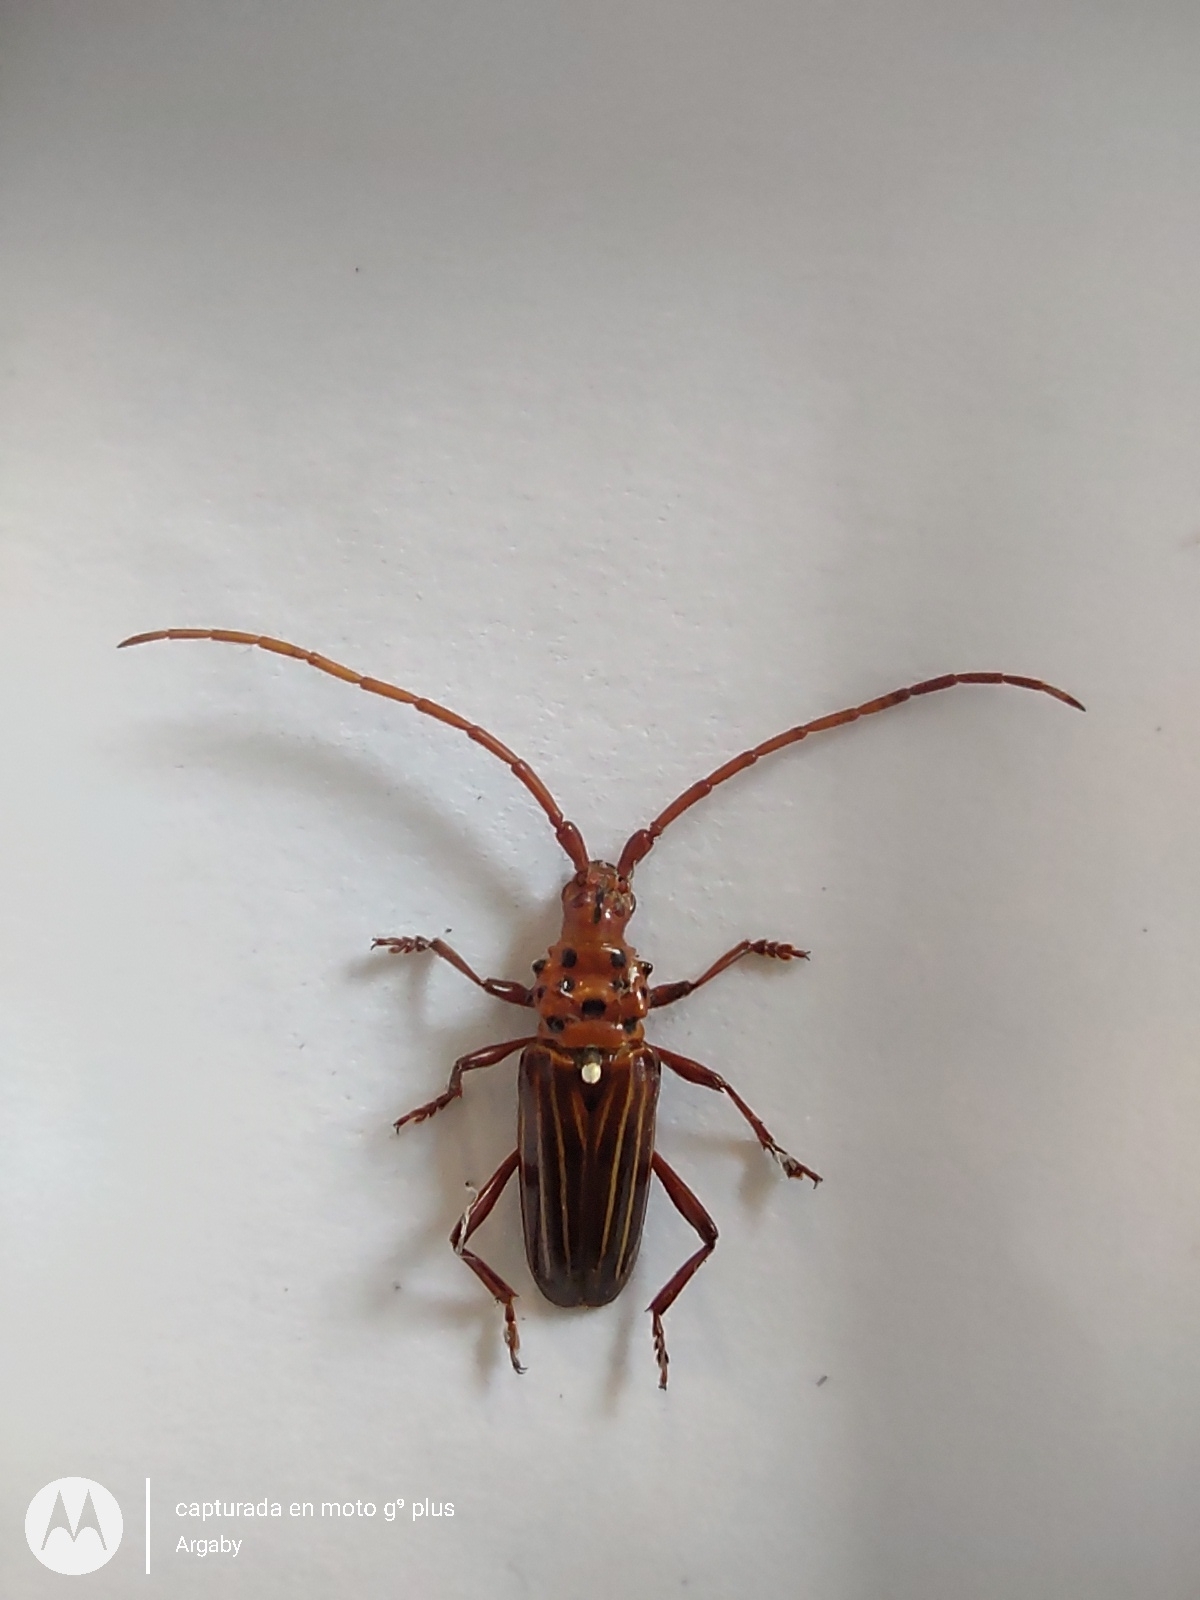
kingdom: Animalia
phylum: Arthropoda
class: Insecta
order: Coleoptera
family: Cerambycidae
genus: Chydarteres
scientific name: Chydarteres striatus
